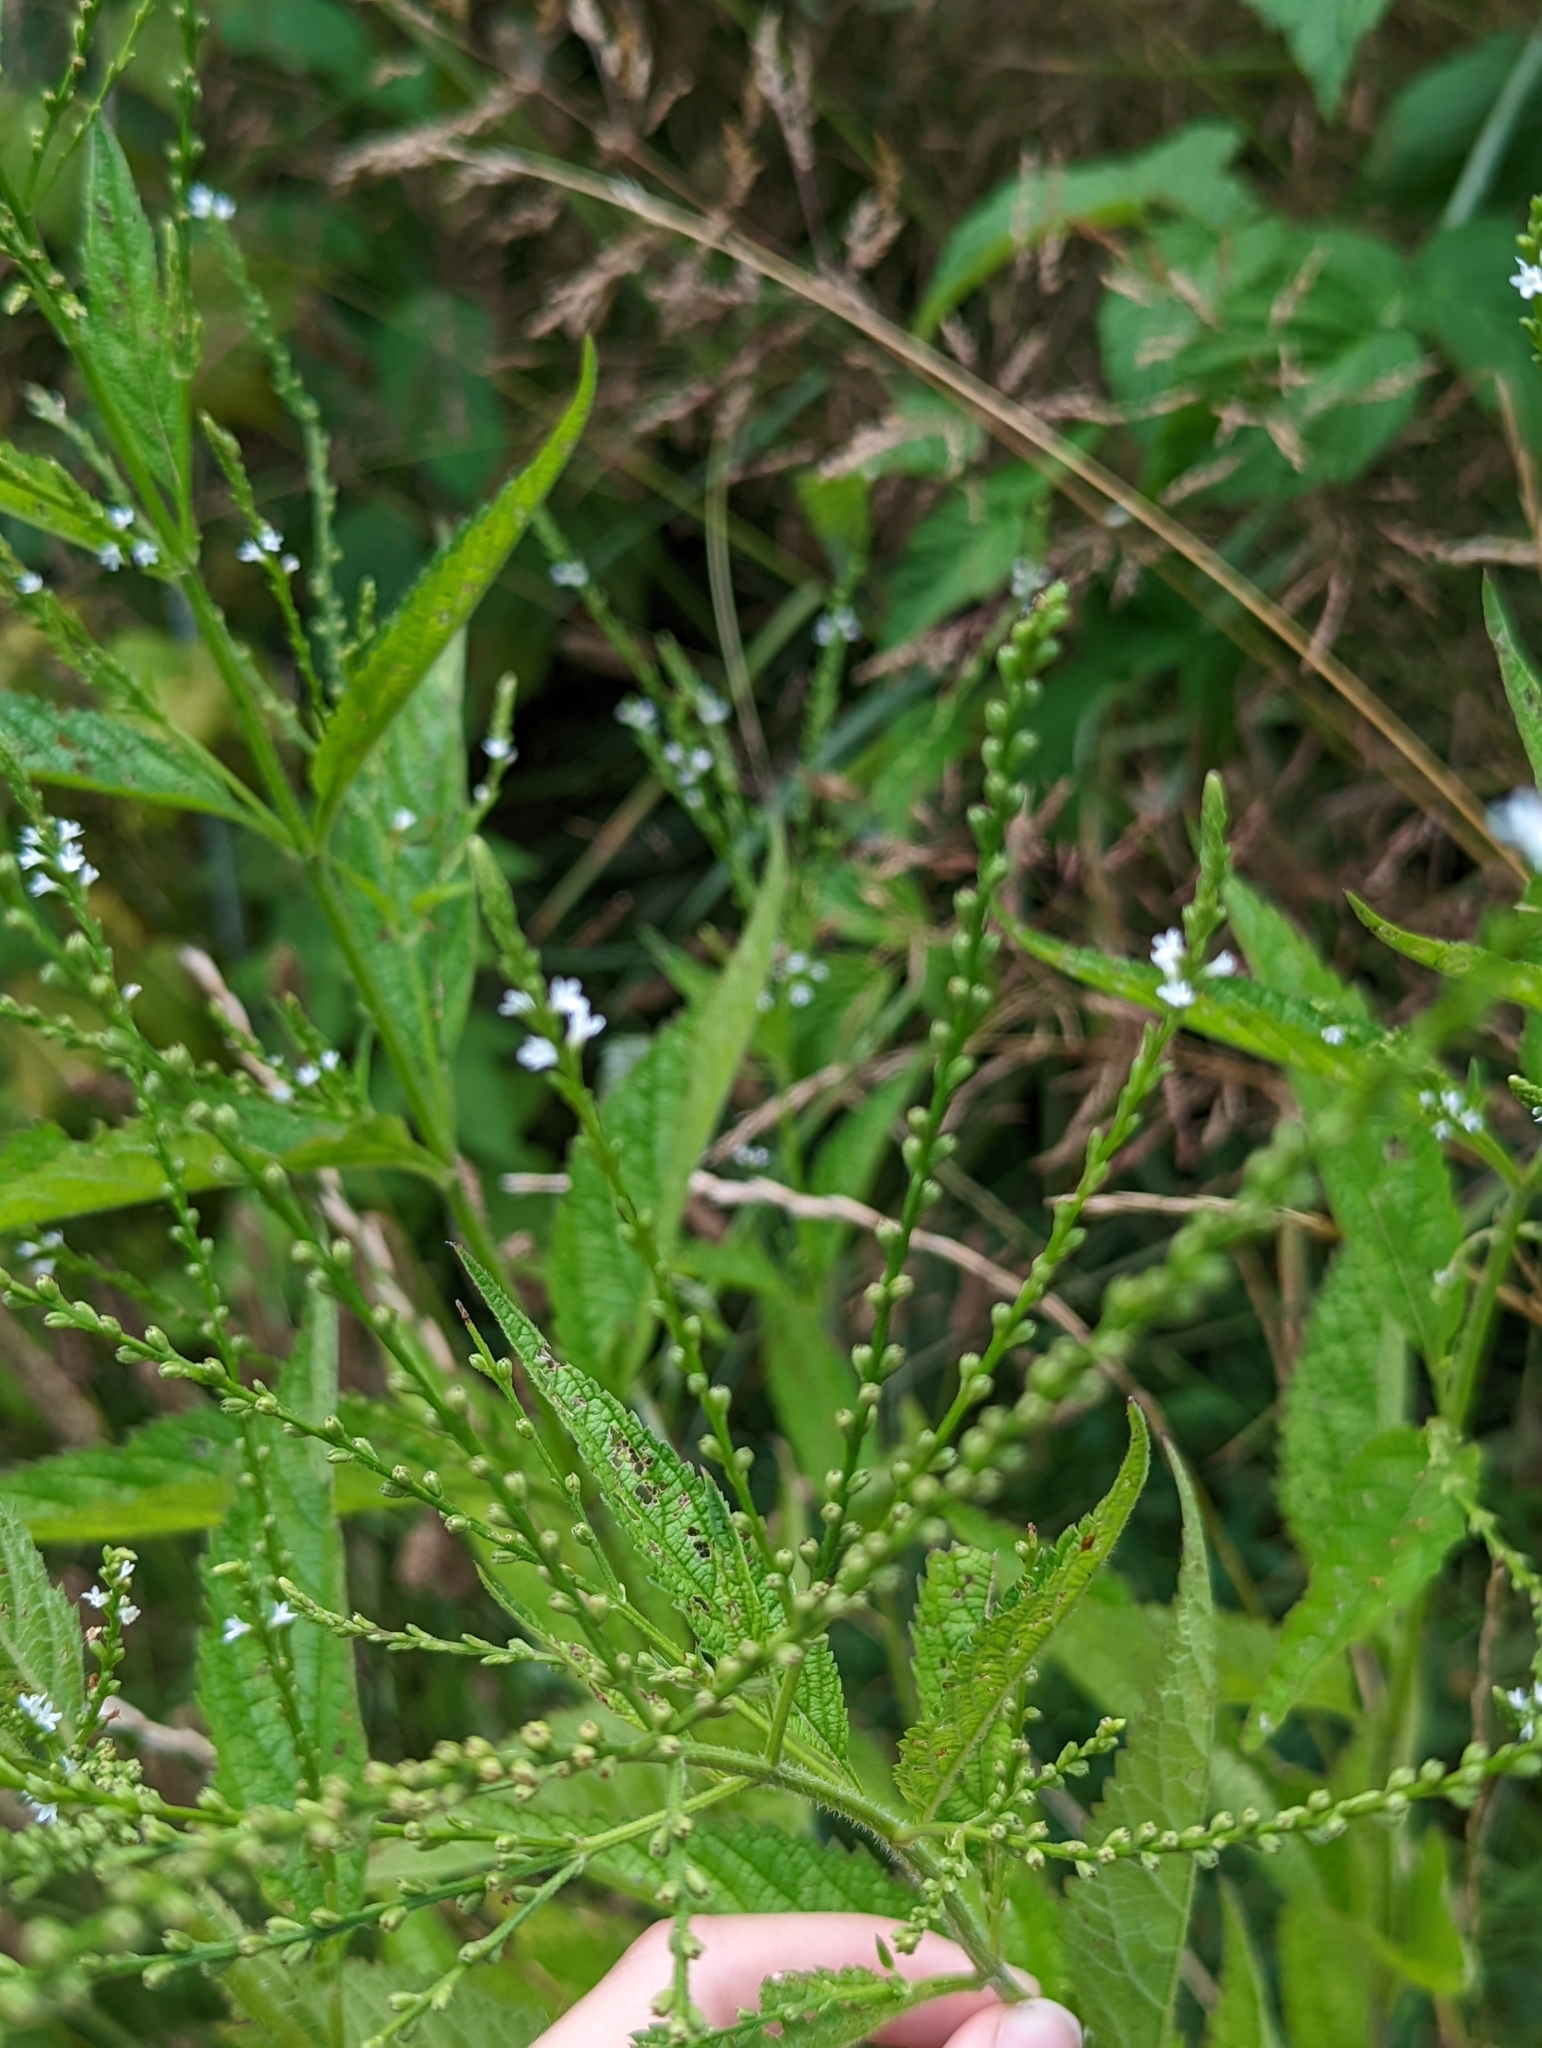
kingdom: Plantae
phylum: Tracheophyta
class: Magnoliopsida
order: Lamiales
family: Verbenaceae
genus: Verbena
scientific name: Verbena urticifolia
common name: Nettle-leaved vervain
